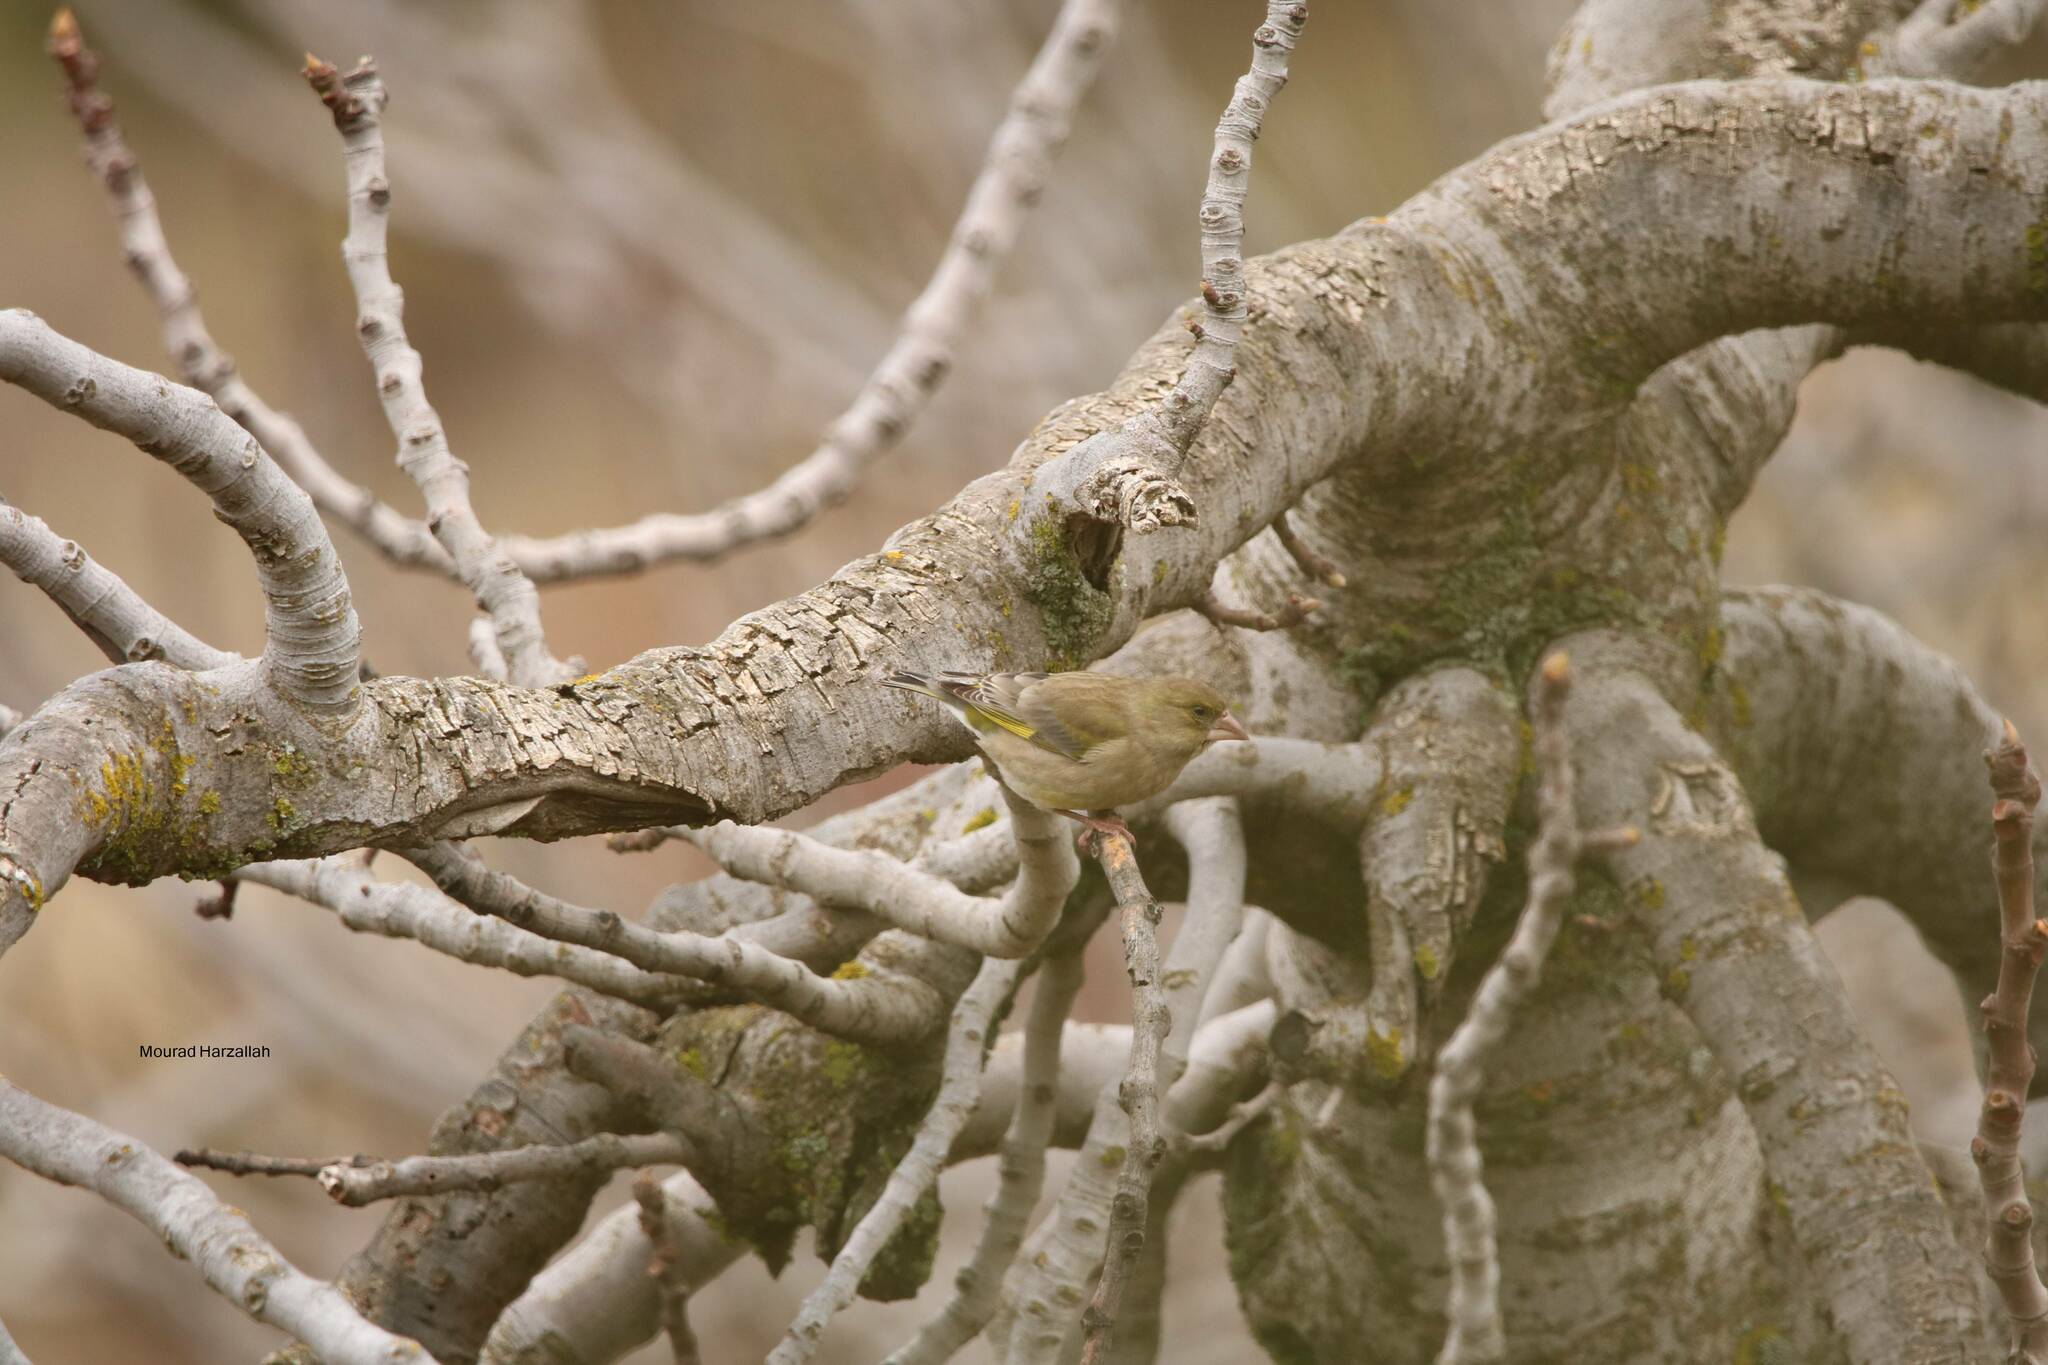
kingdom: Plantae
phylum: Tracheophyta
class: Liliopsida
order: Poales
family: Poaceae
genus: Chloris
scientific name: Chloris chloris
